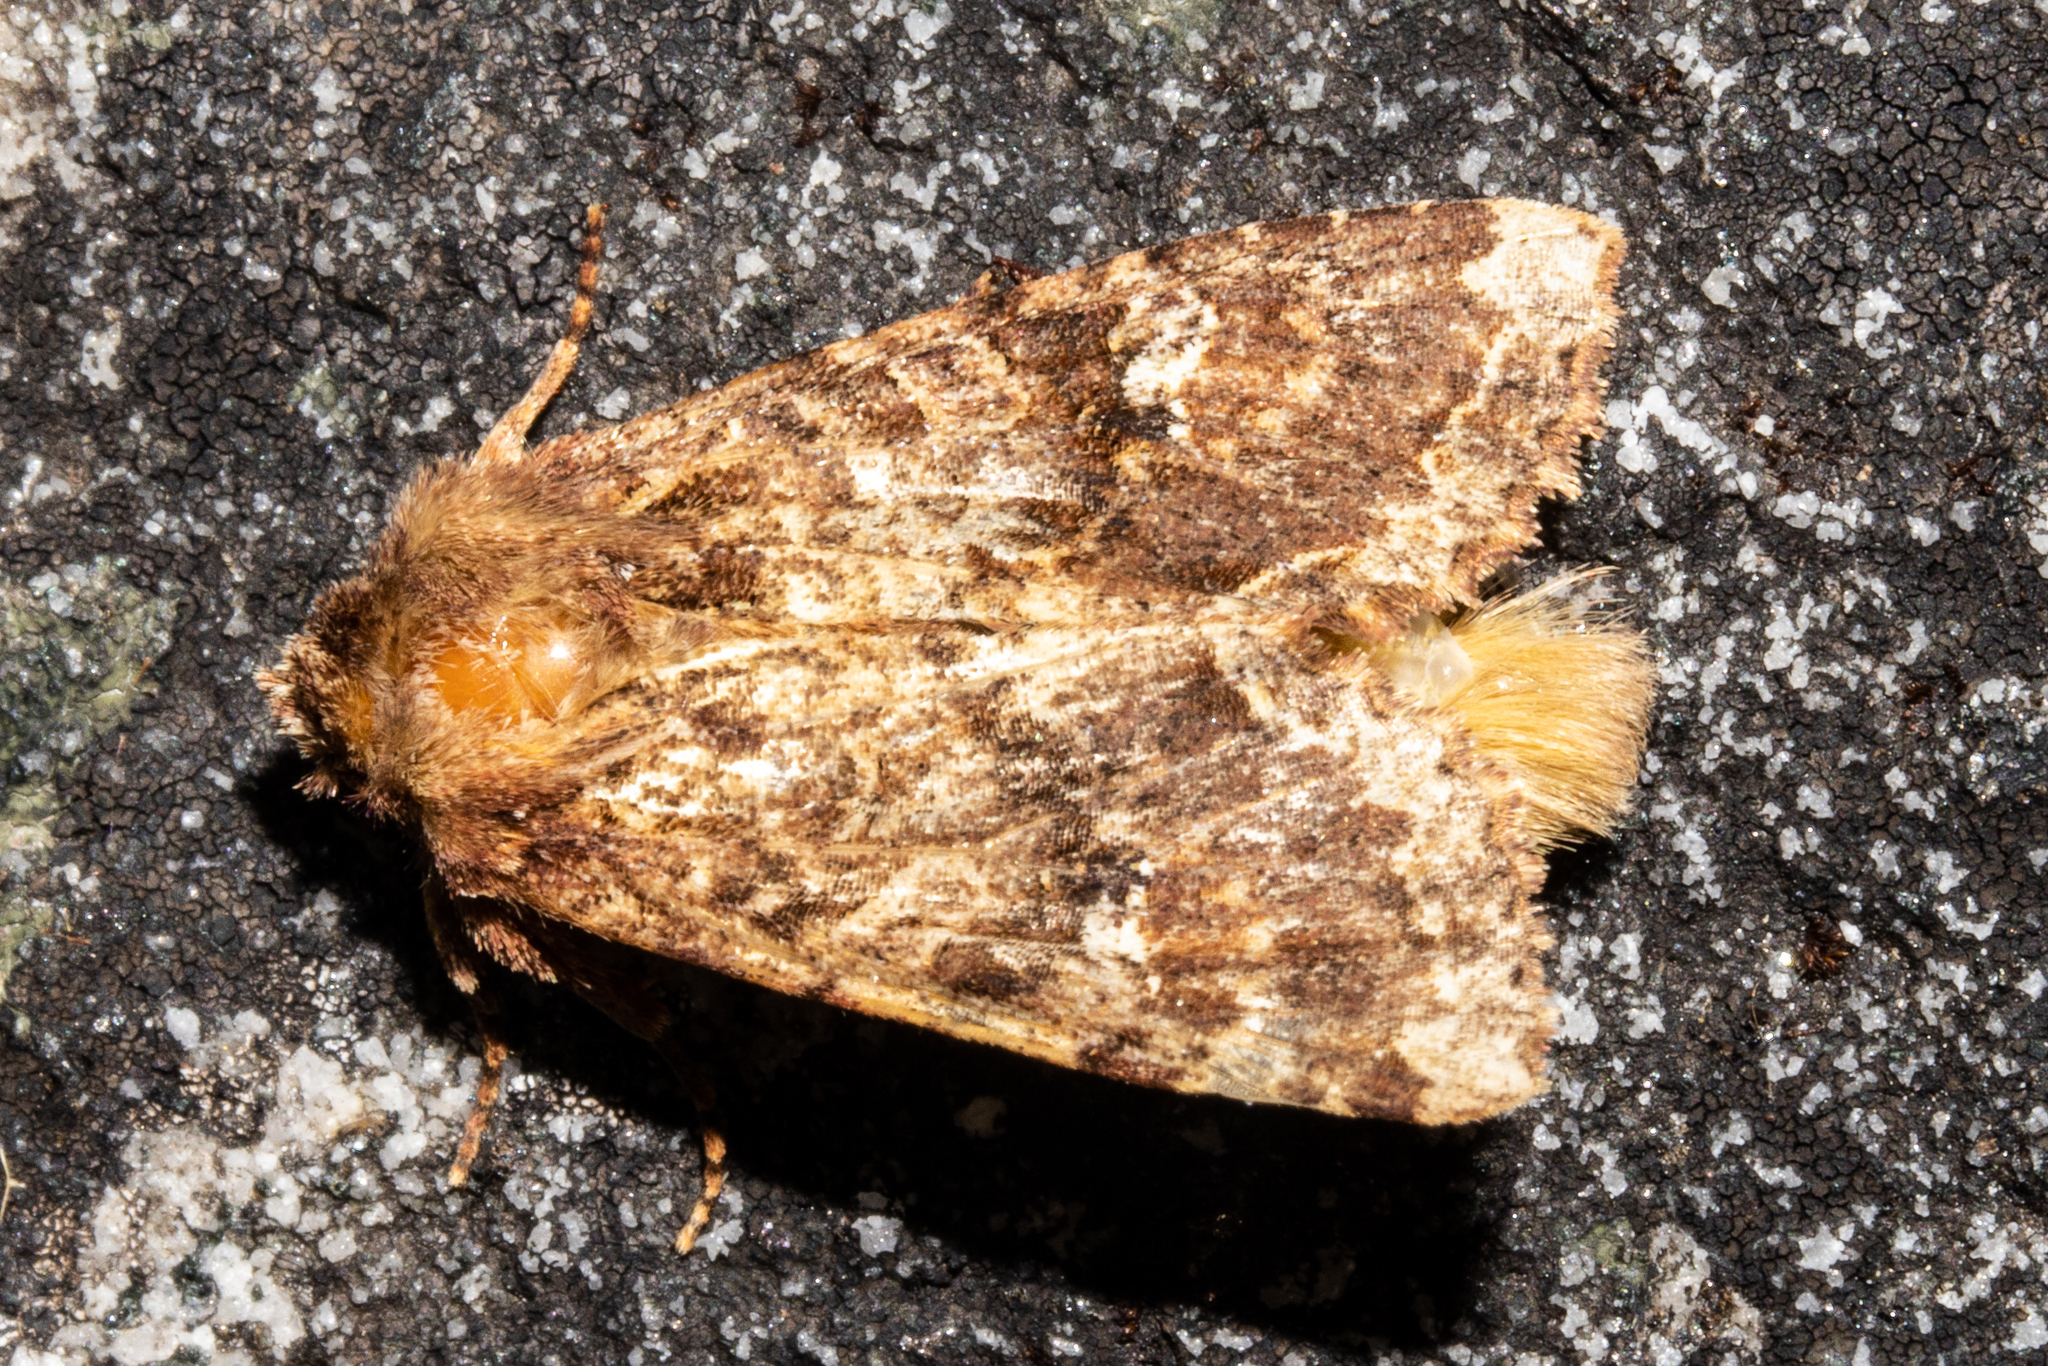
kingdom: Animalia
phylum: Arthropoda
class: Insecta
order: Lepidoptera
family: Noctuidae
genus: Meterana
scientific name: Meterana
